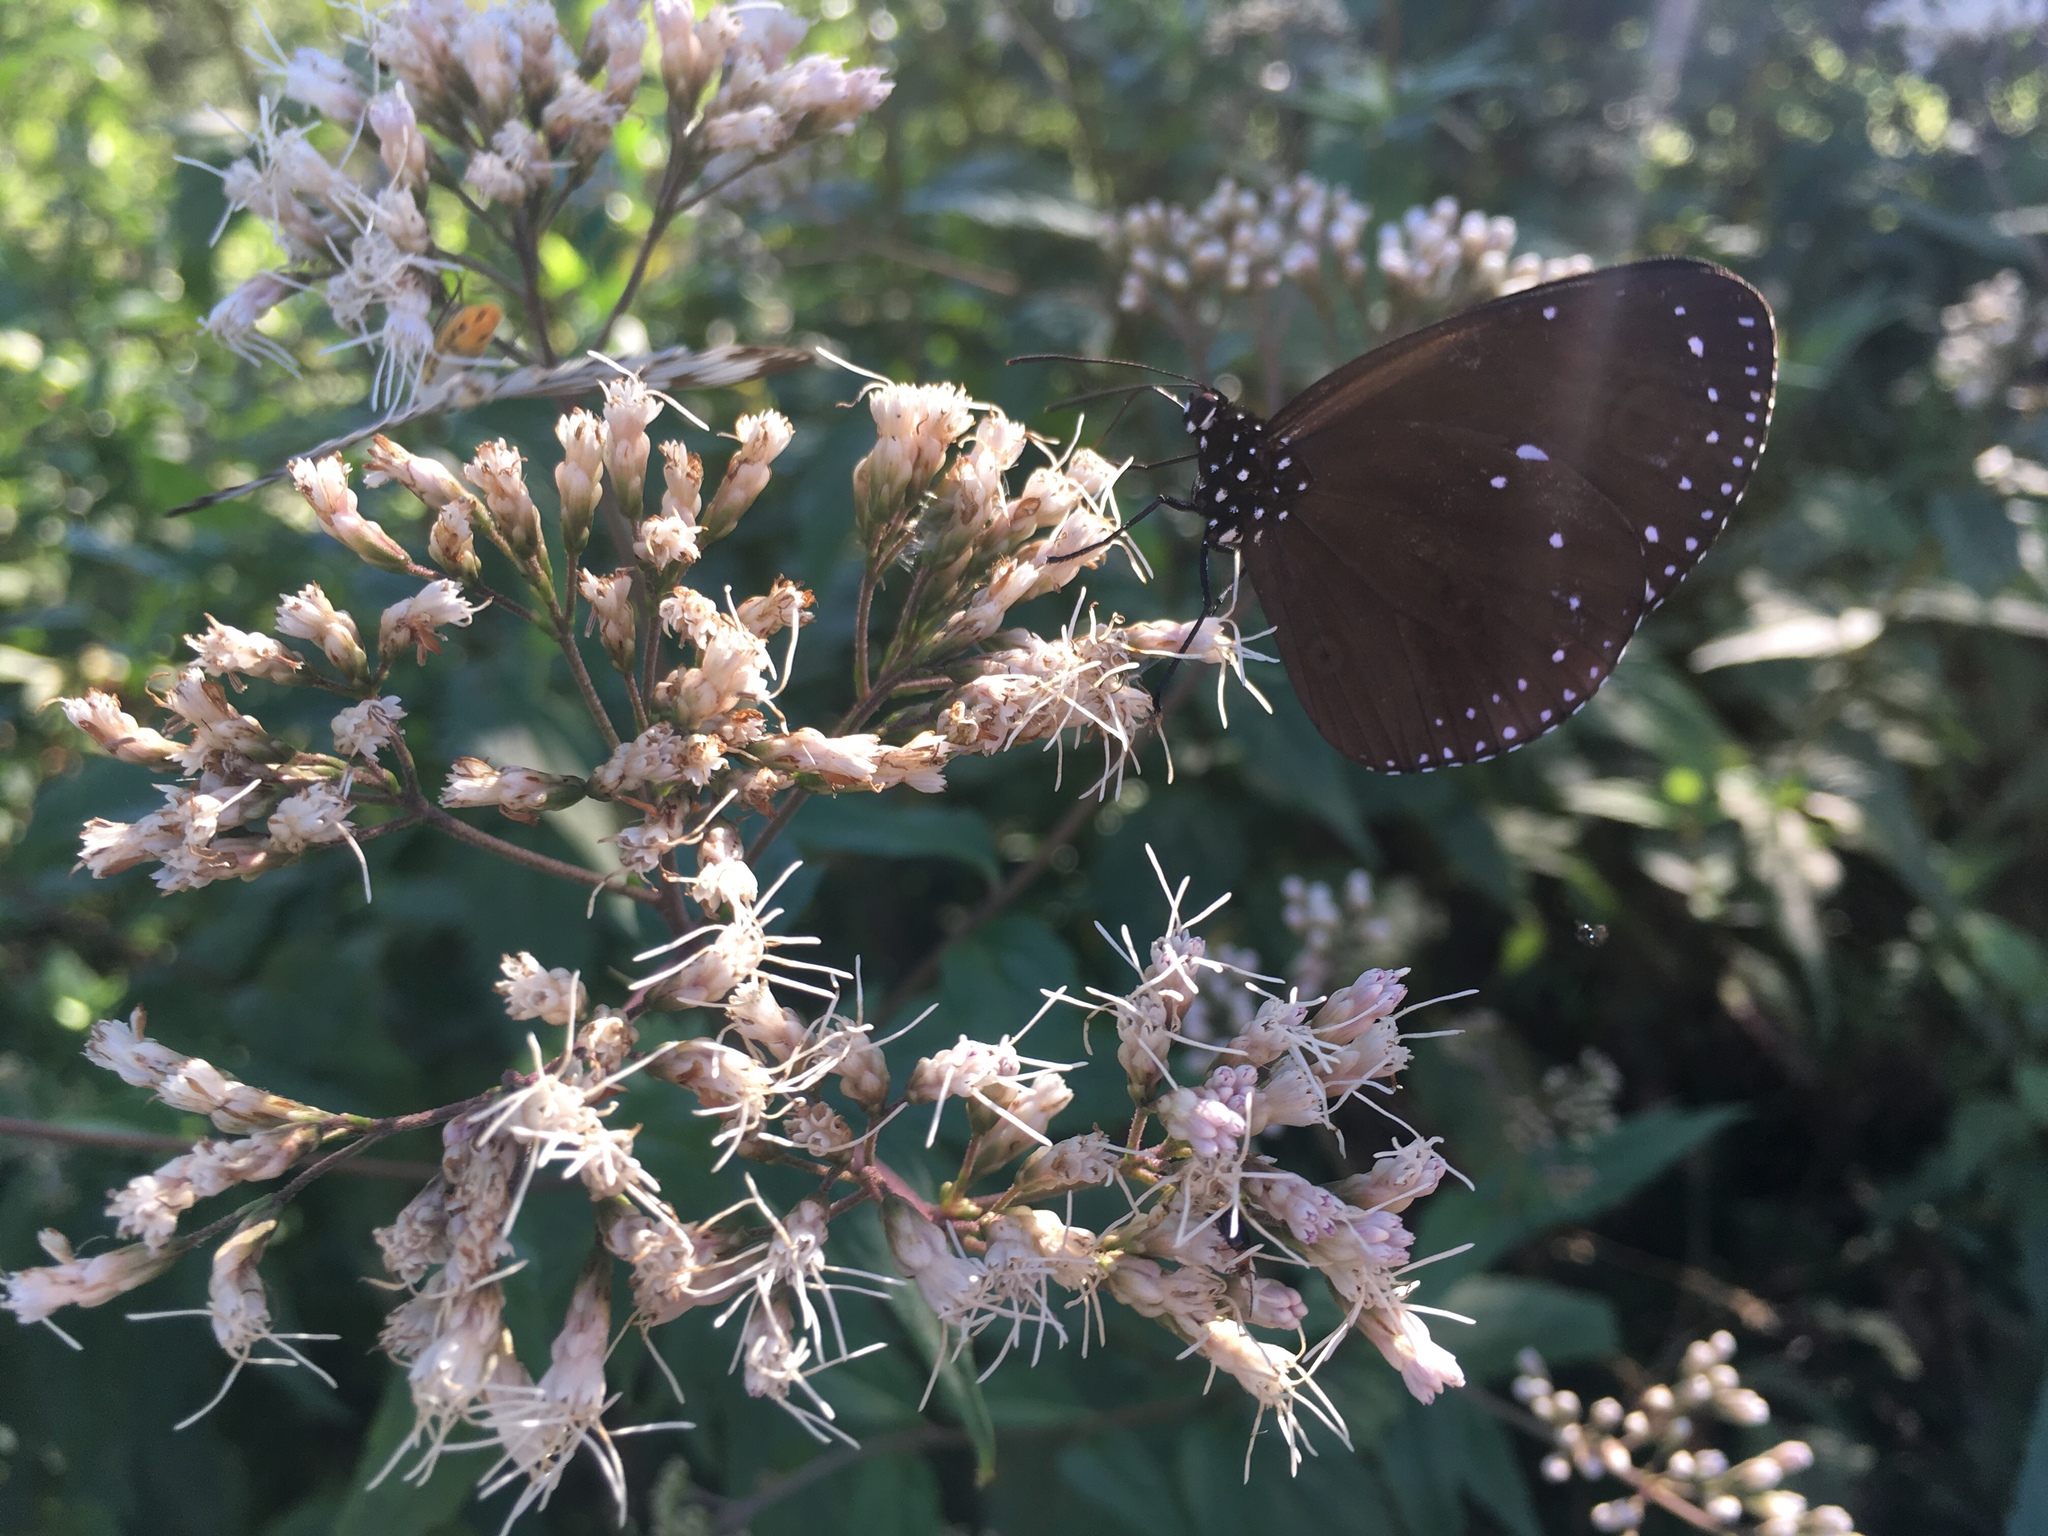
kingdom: Animalia
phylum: Arthropoda
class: Insecta
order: Lepidoptera
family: Nymphalidae
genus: Euploea
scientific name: Euploea tulliolus
